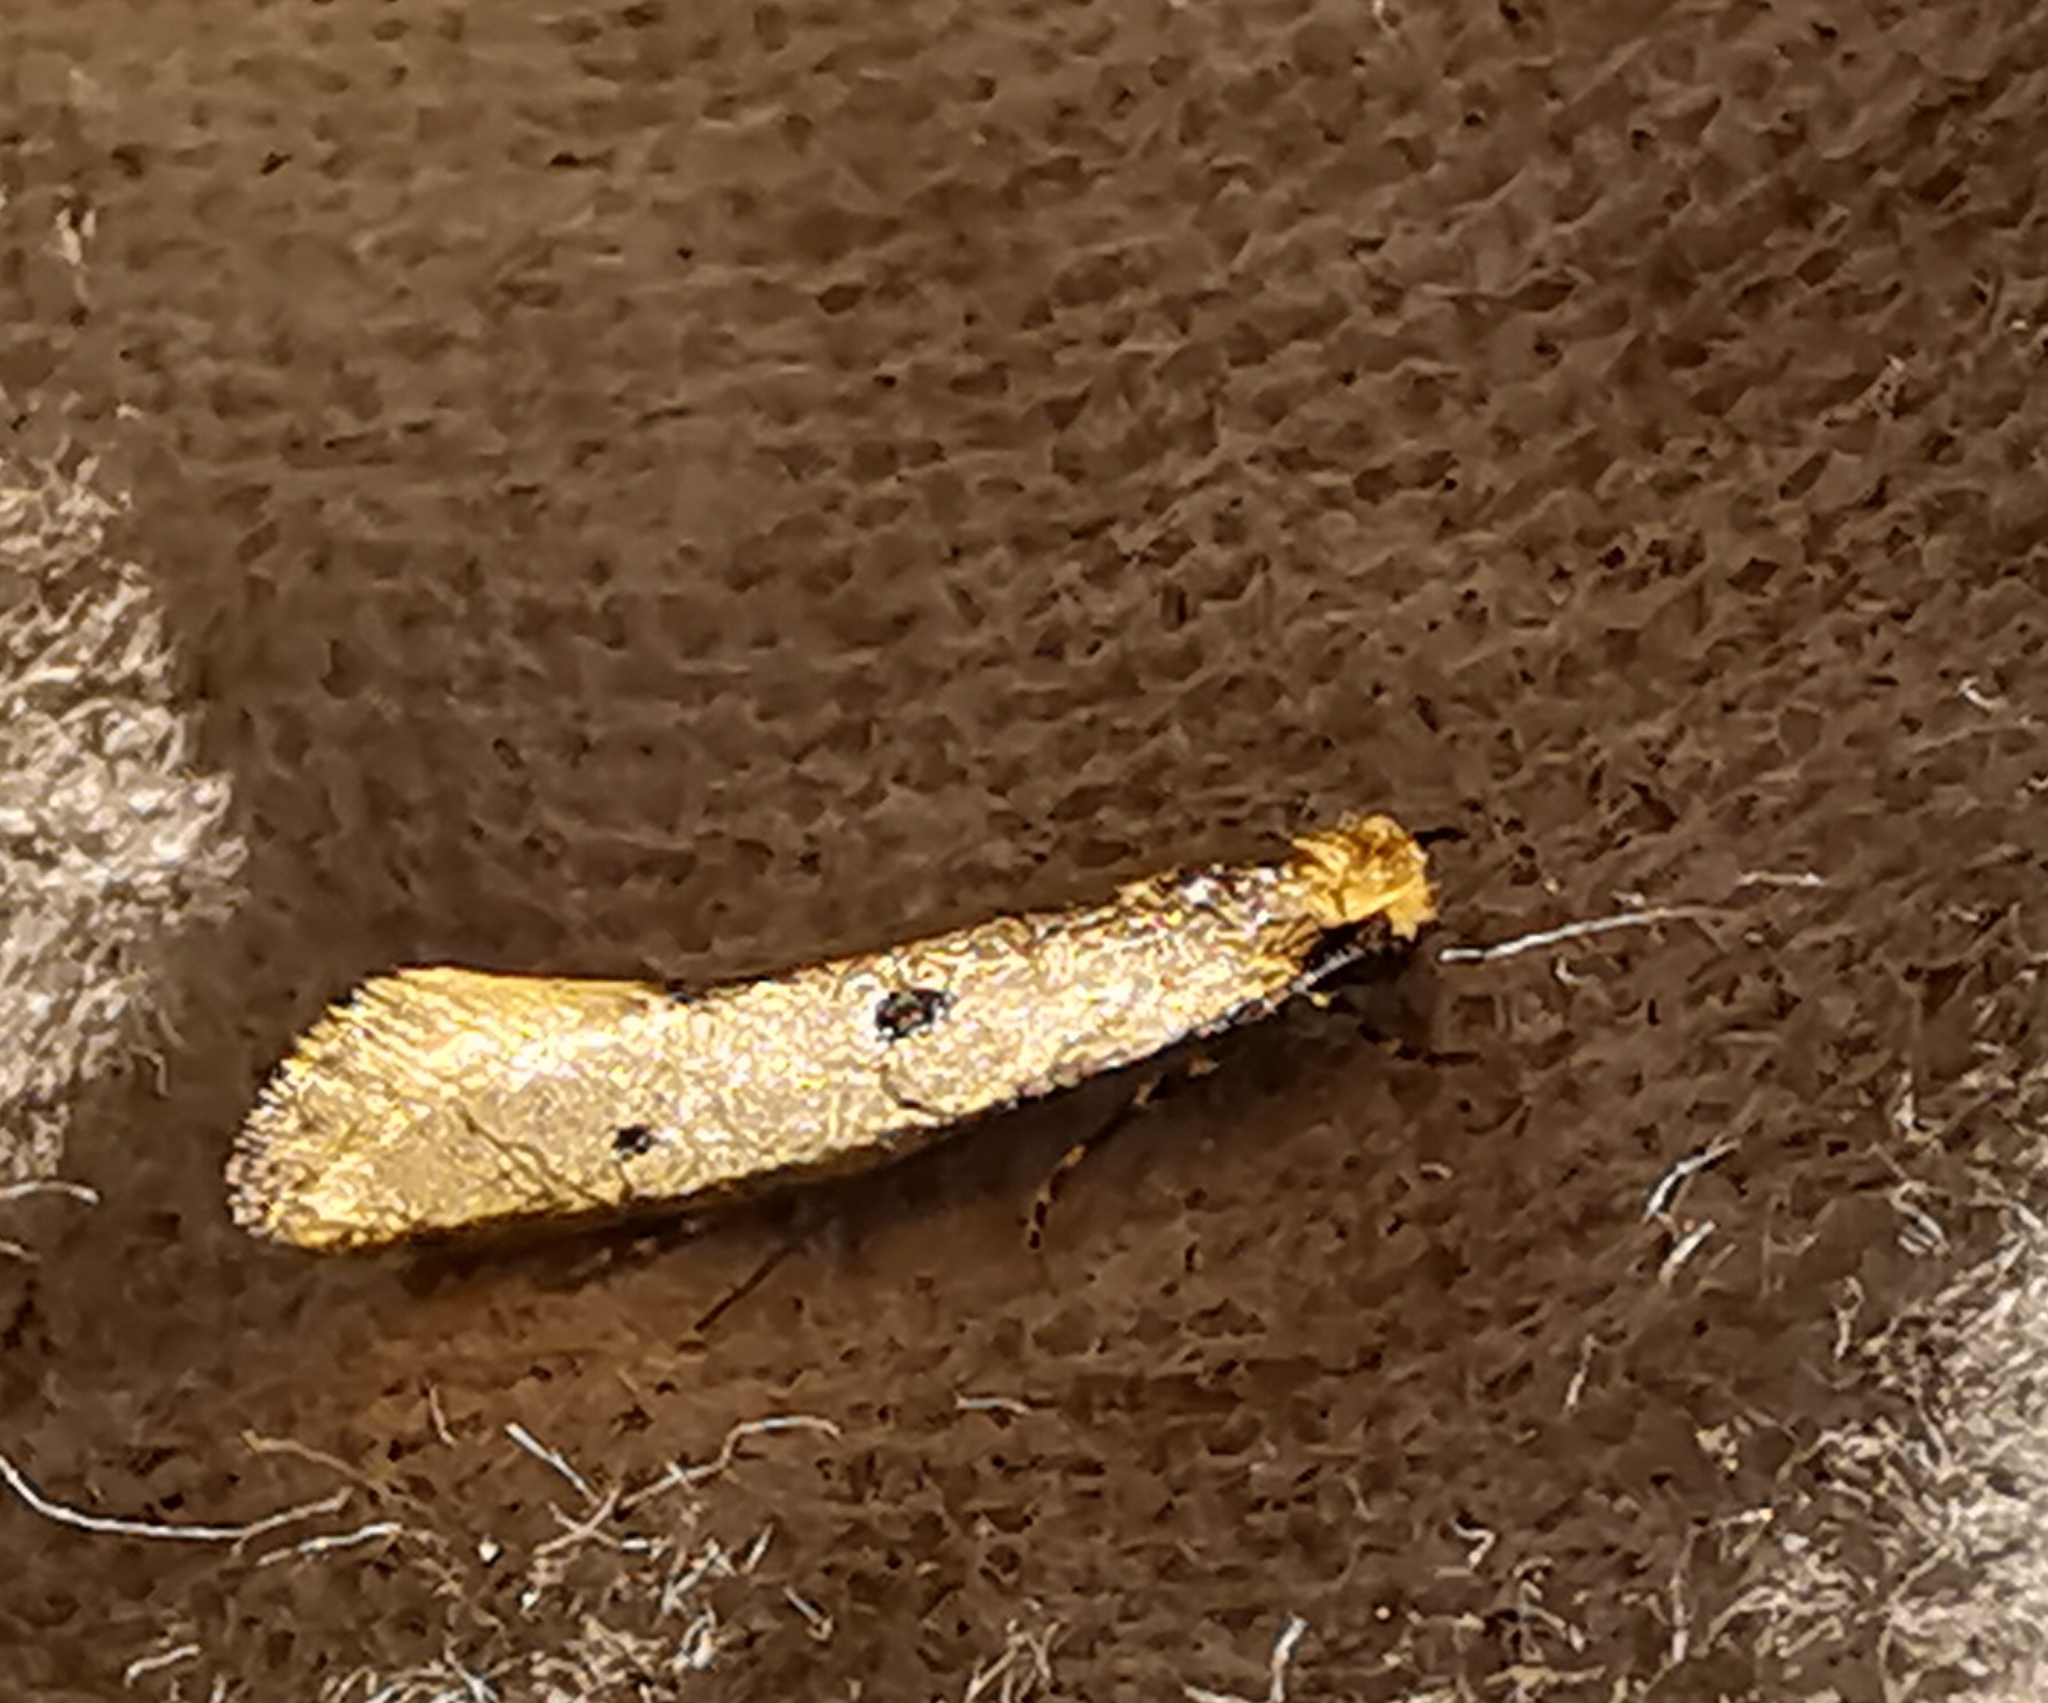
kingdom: Animalia
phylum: Arthropoda
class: Insecta
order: Lepidoptera
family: Tineidae
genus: Tinea
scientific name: Tinea trinotella
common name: Bird's-nest moth
